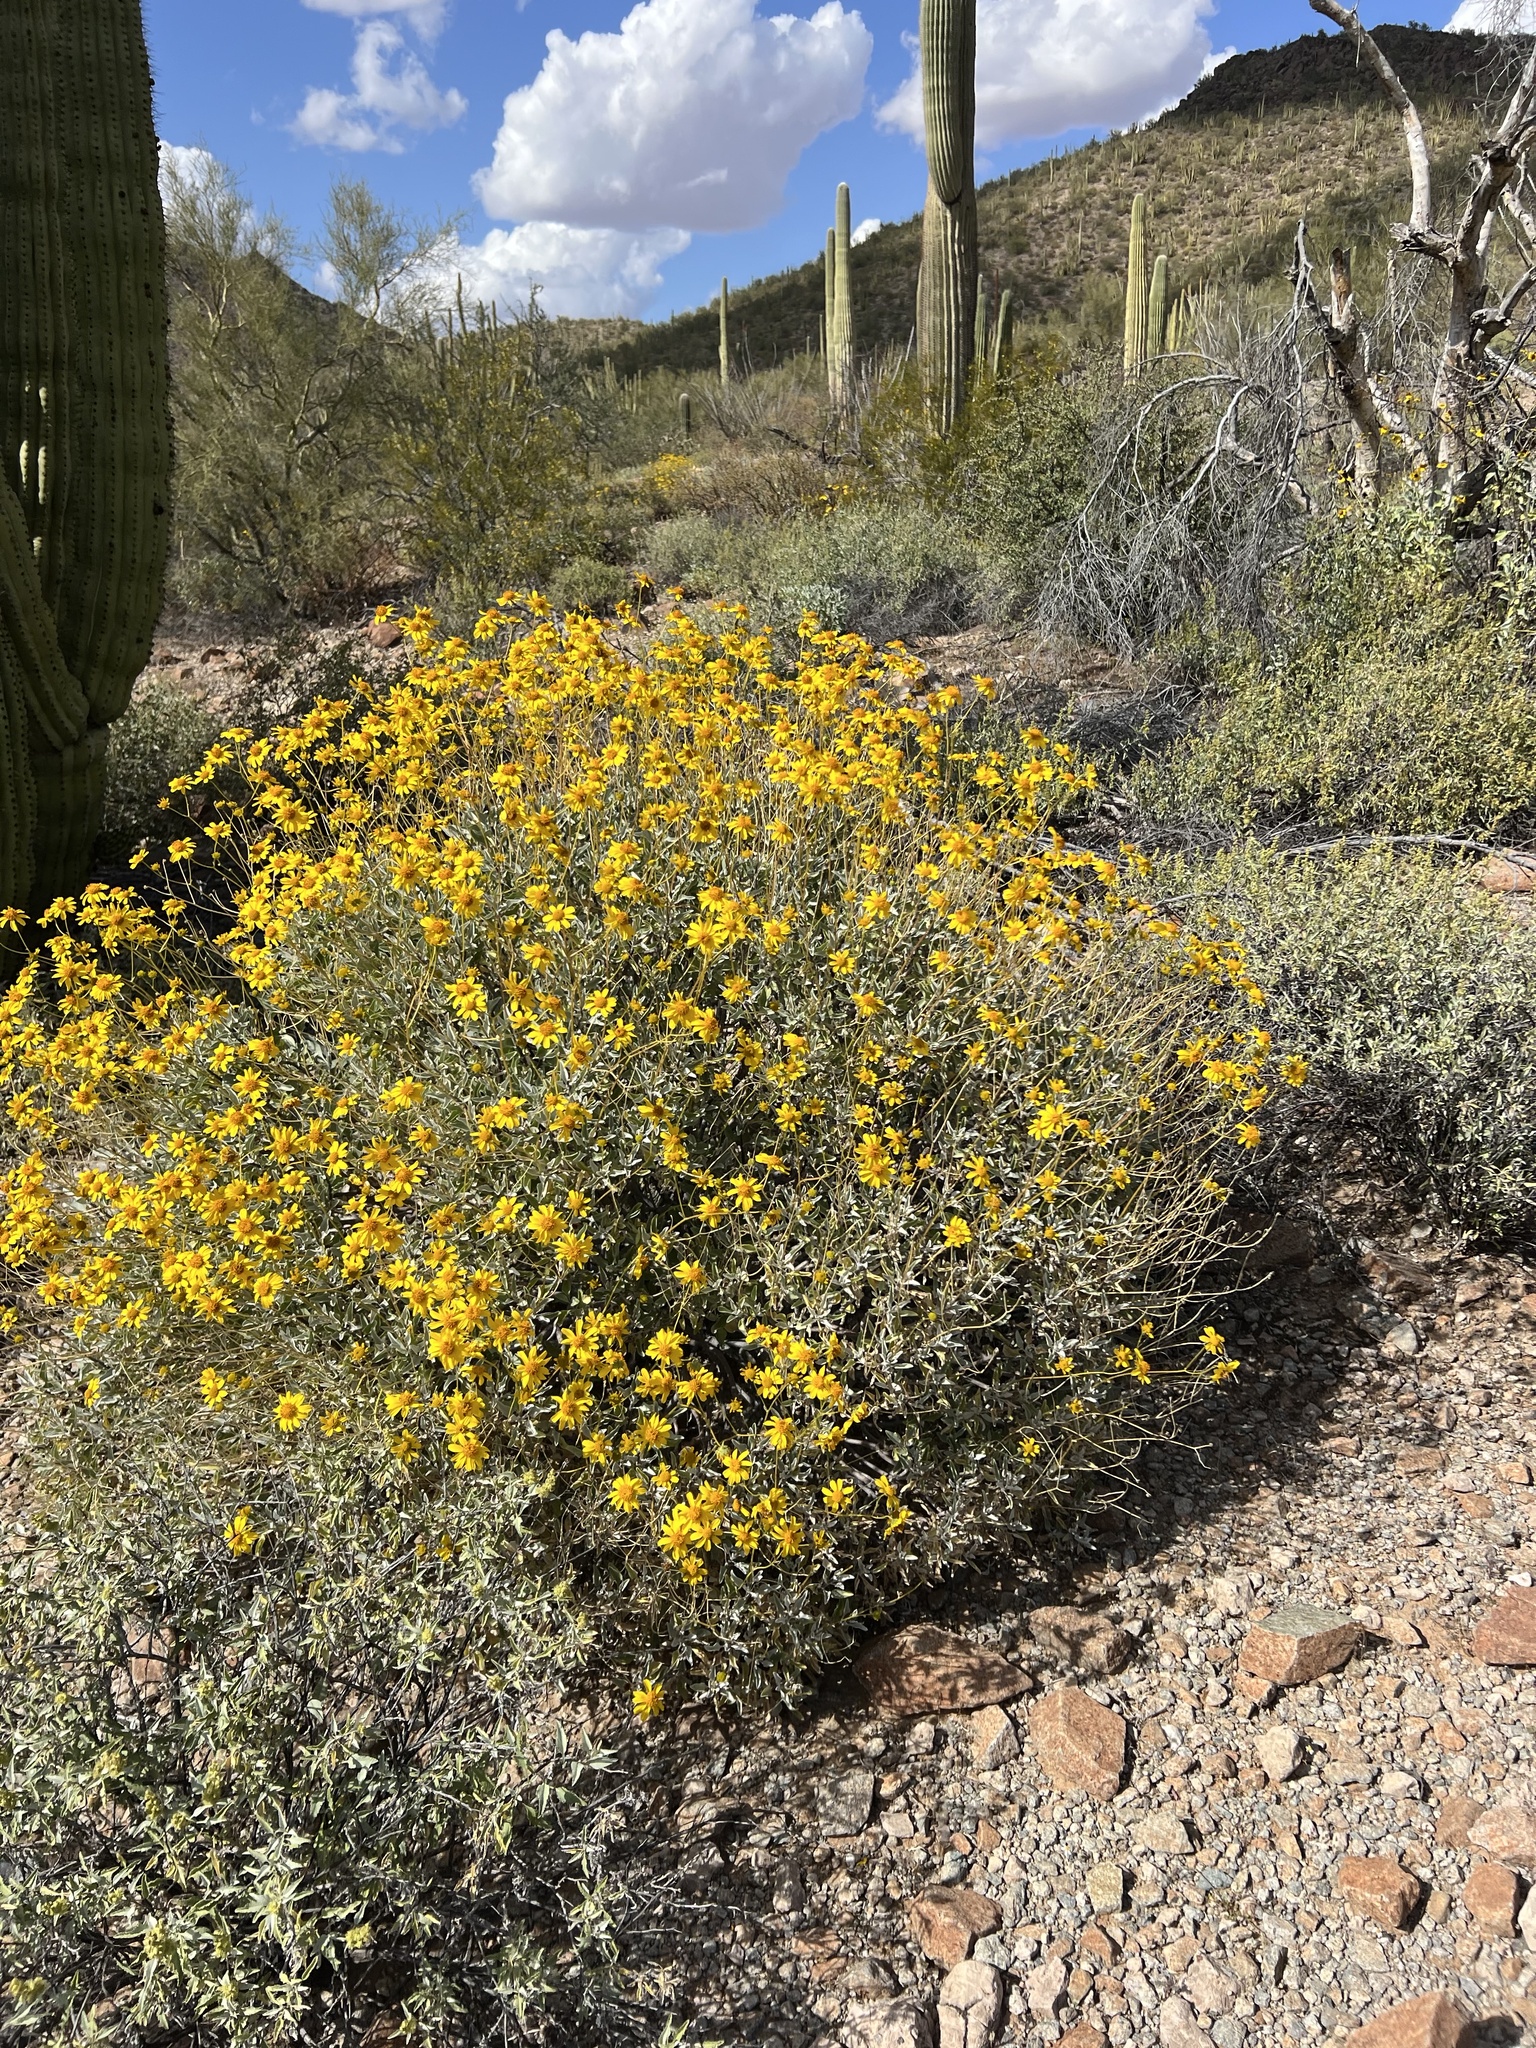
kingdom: Plantae
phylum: Tracheophyta
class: Magnoliopsida
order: Asterales
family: Asteraceae
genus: Encelia
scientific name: Encelia farinosa
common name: Brittlebush
